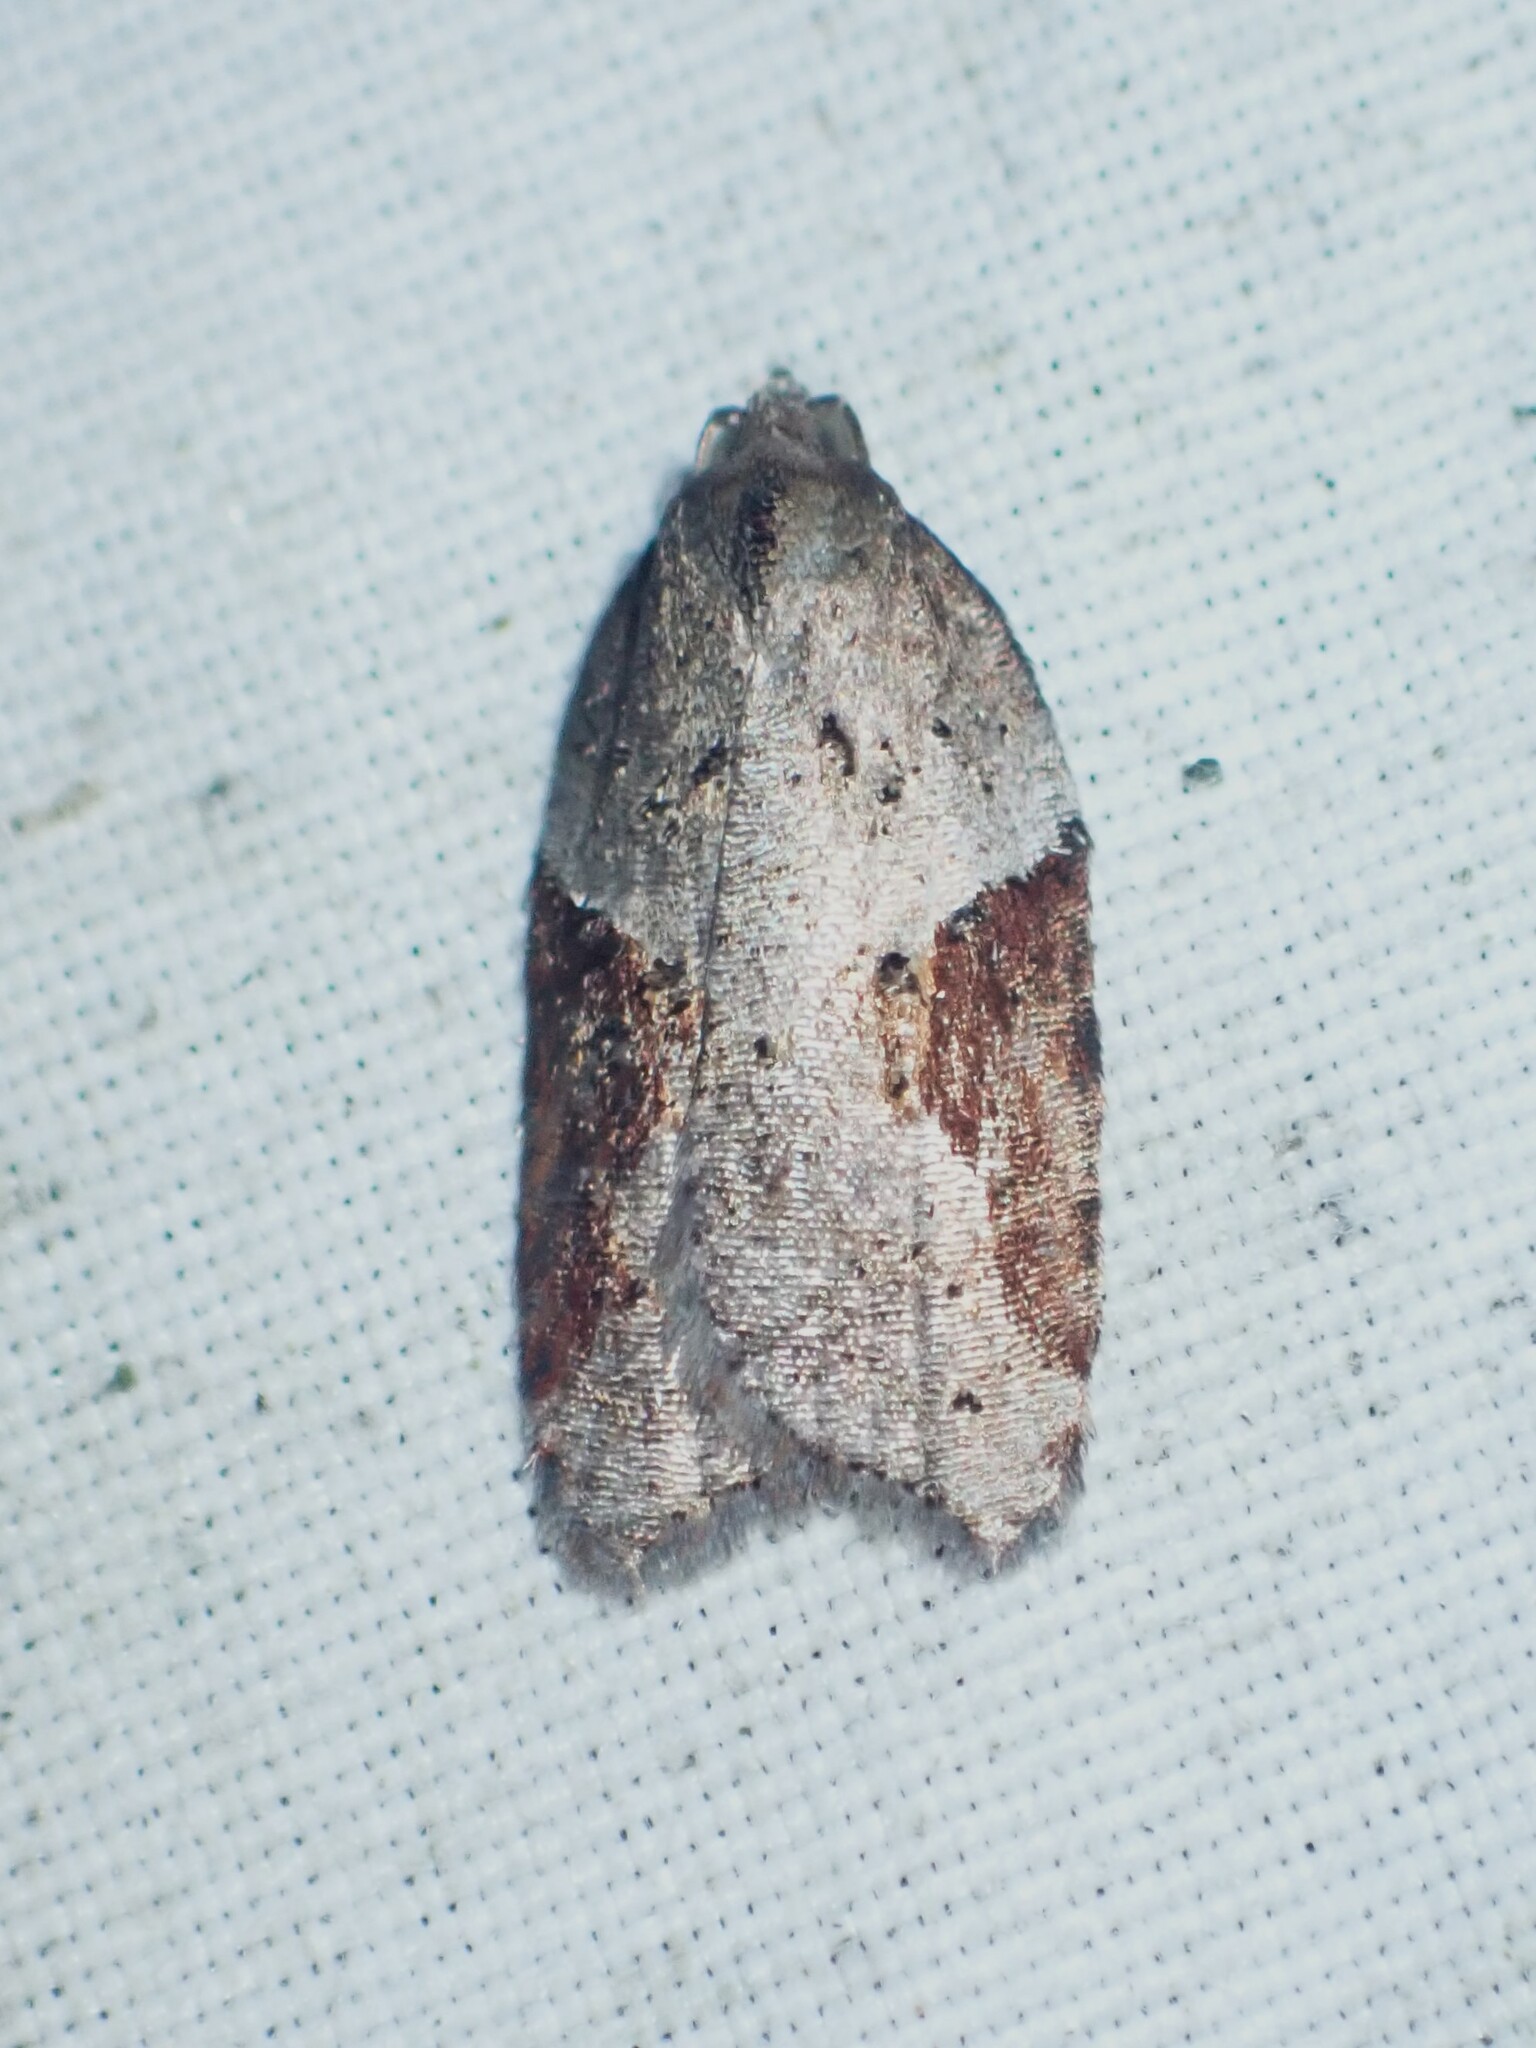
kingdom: Animalia
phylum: Arthropoda
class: Insecta
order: Lepidoptera
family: Tortricidae
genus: Acleris
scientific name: Acleris macdunnoughi
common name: Macdunnough's acleris
